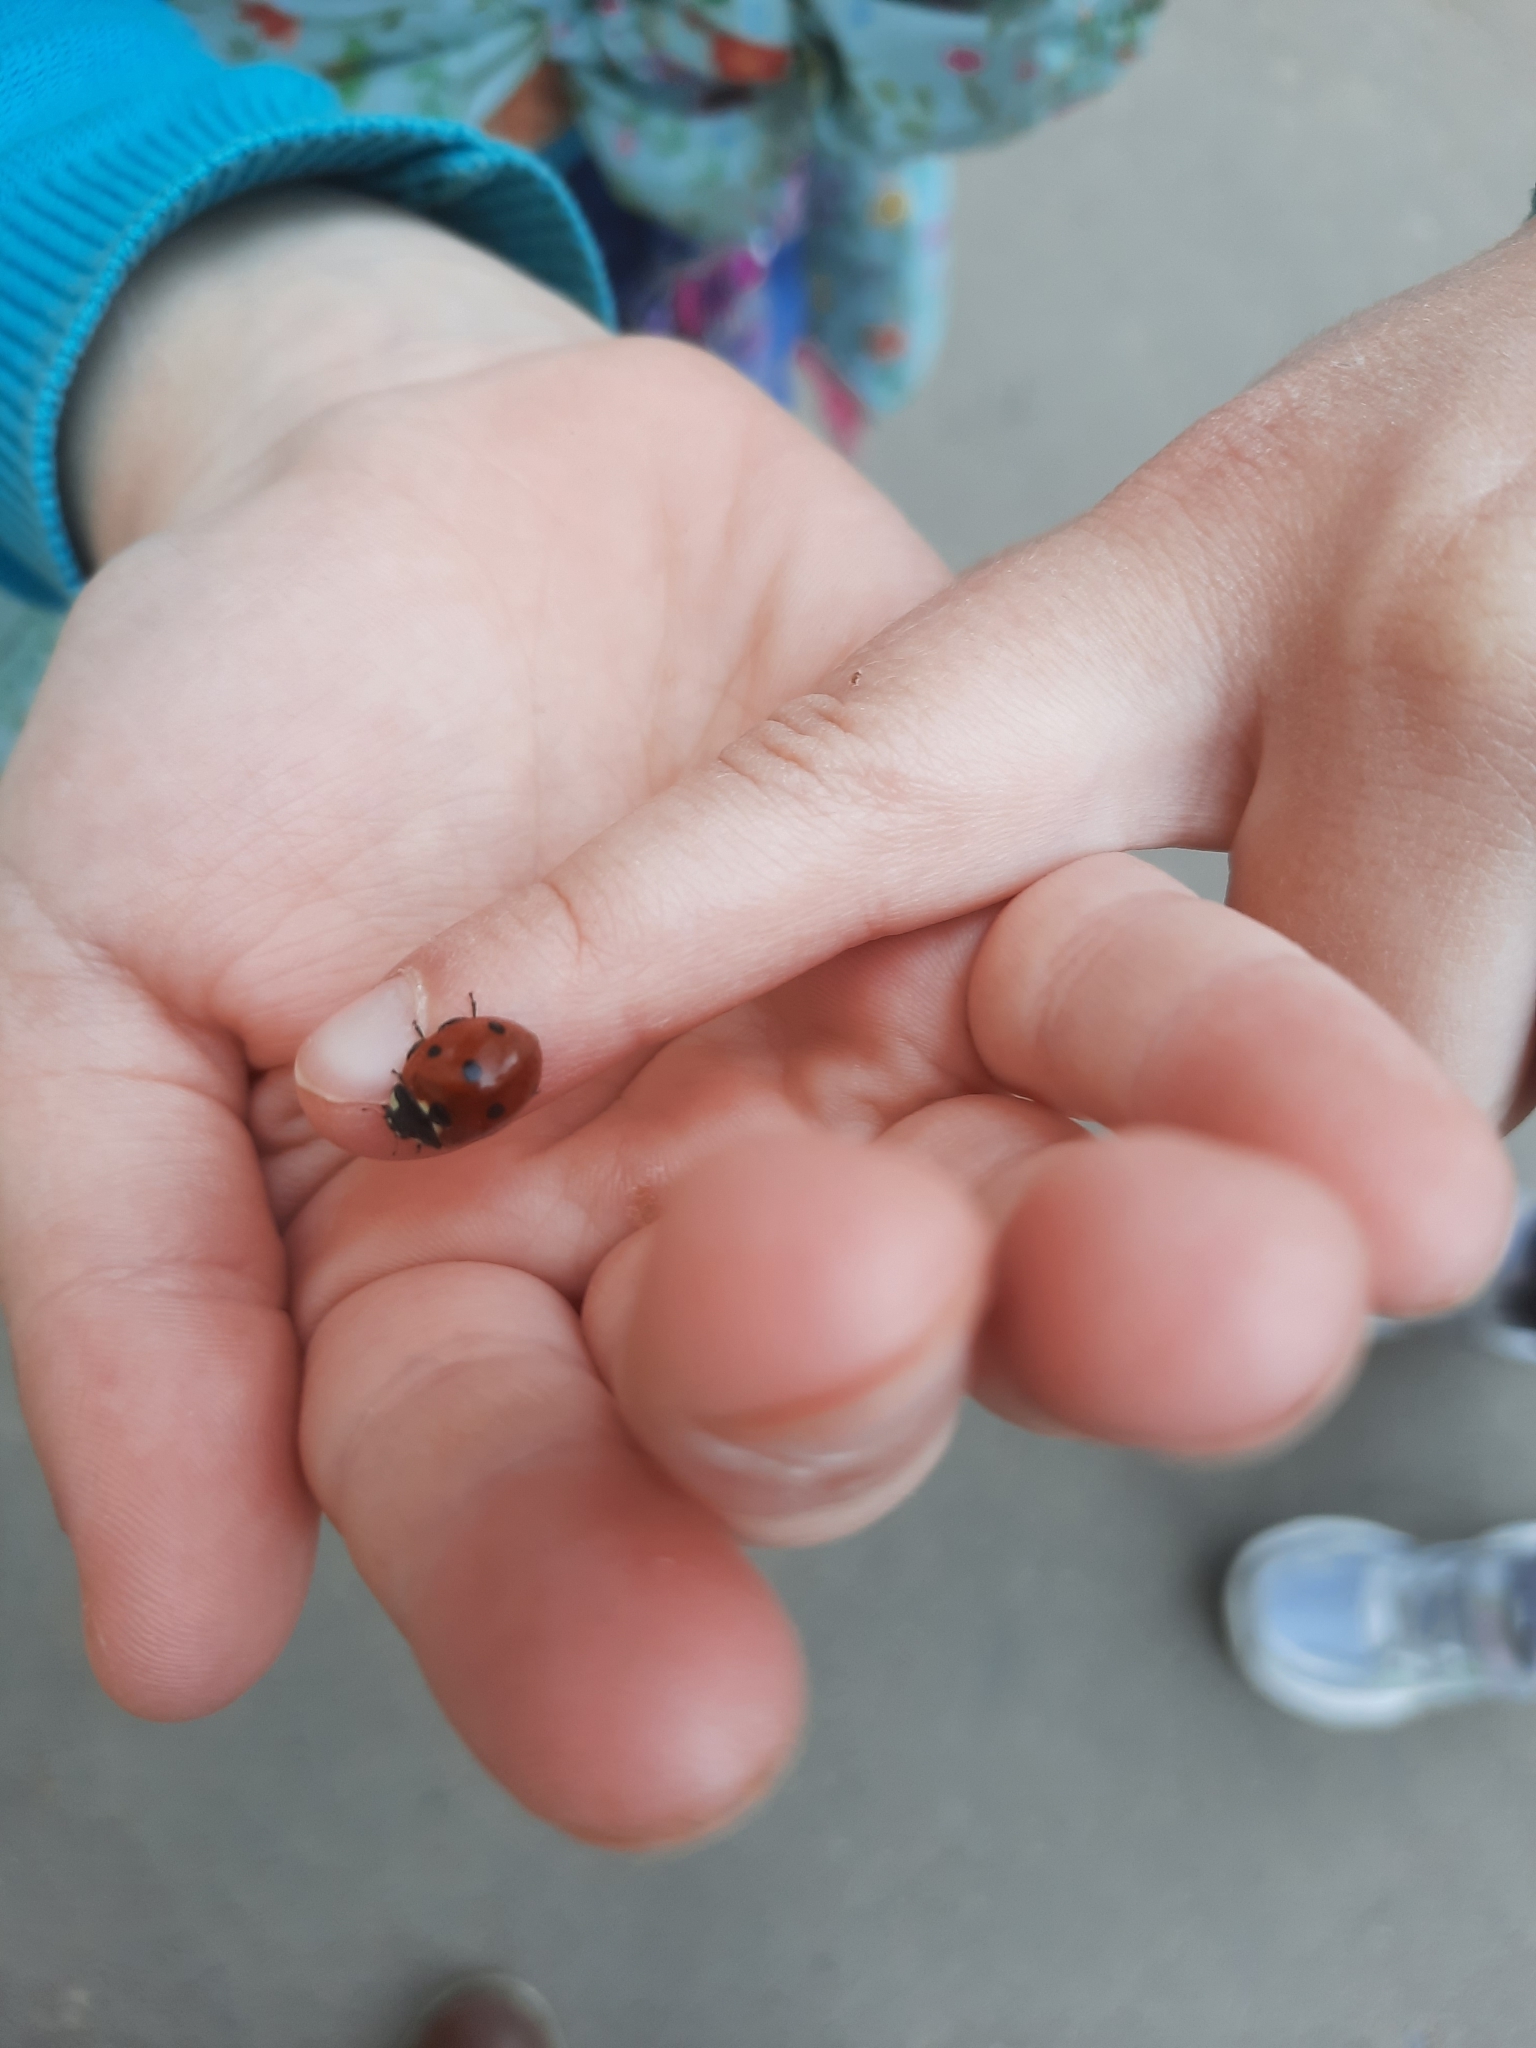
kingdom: Animalia
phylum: Arthropoda
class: Insecta
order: Coleoptera
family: Coccinellidae
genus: Coccinella
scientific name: Coccinella septempunctata
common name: Sevenspotted lady beetle
